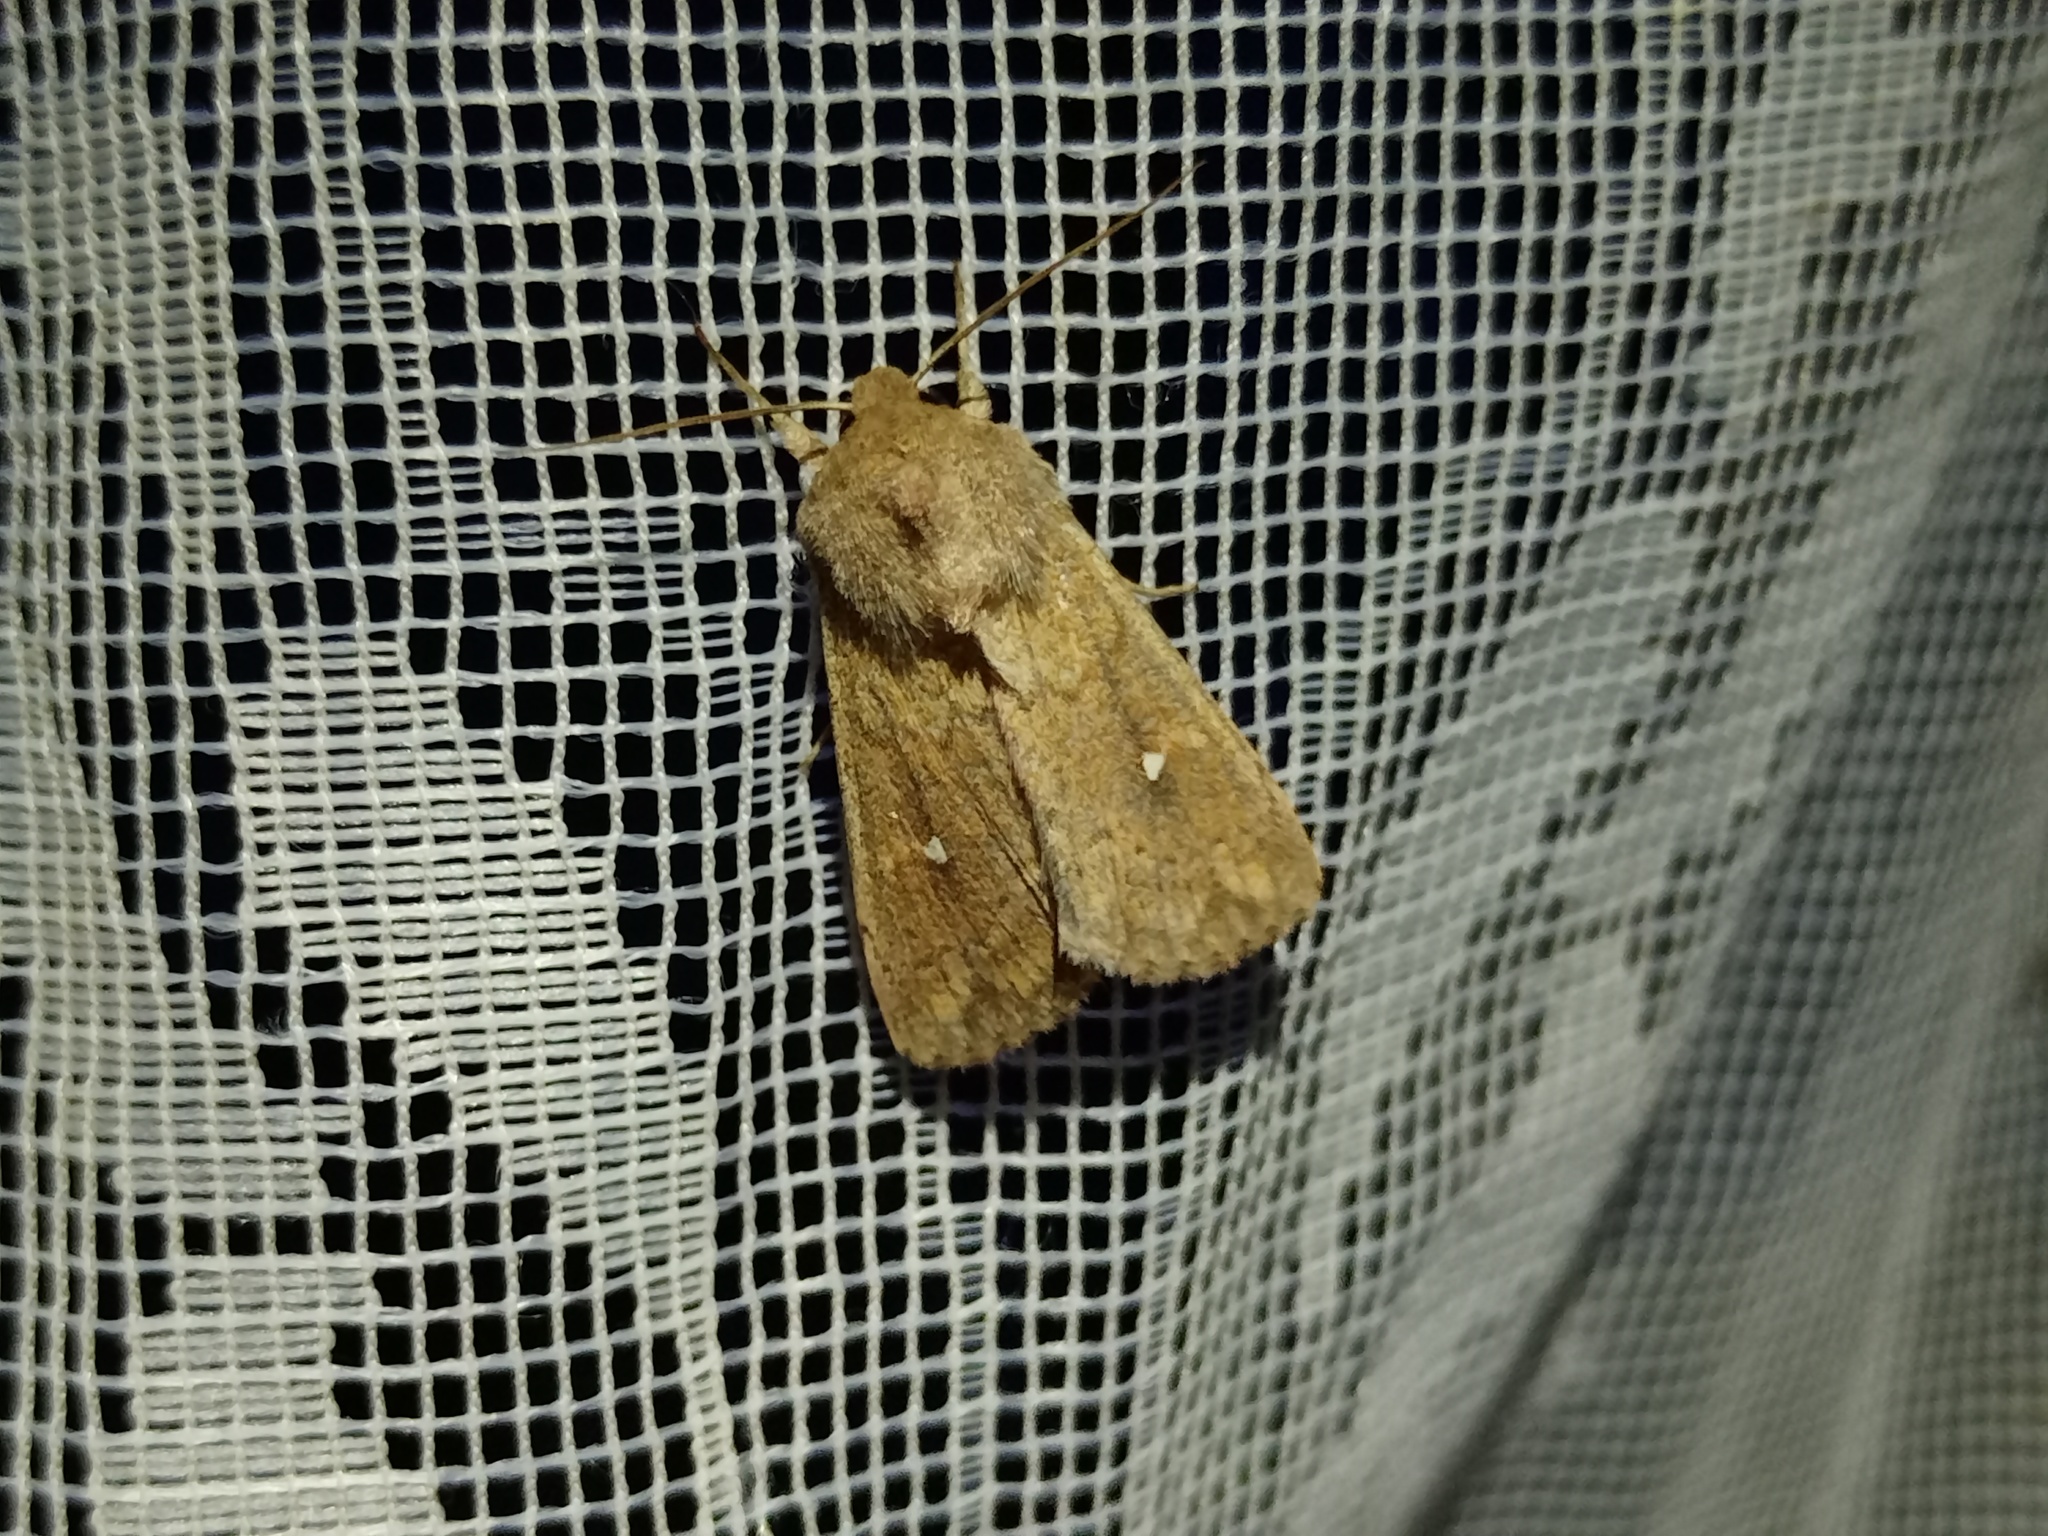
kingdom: Animalia
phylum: Arthropoda
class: Insecta
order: Lepidoptera
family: Noctuidae
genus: Mythimna
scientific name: Mythimna albipuncta
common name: White-point
